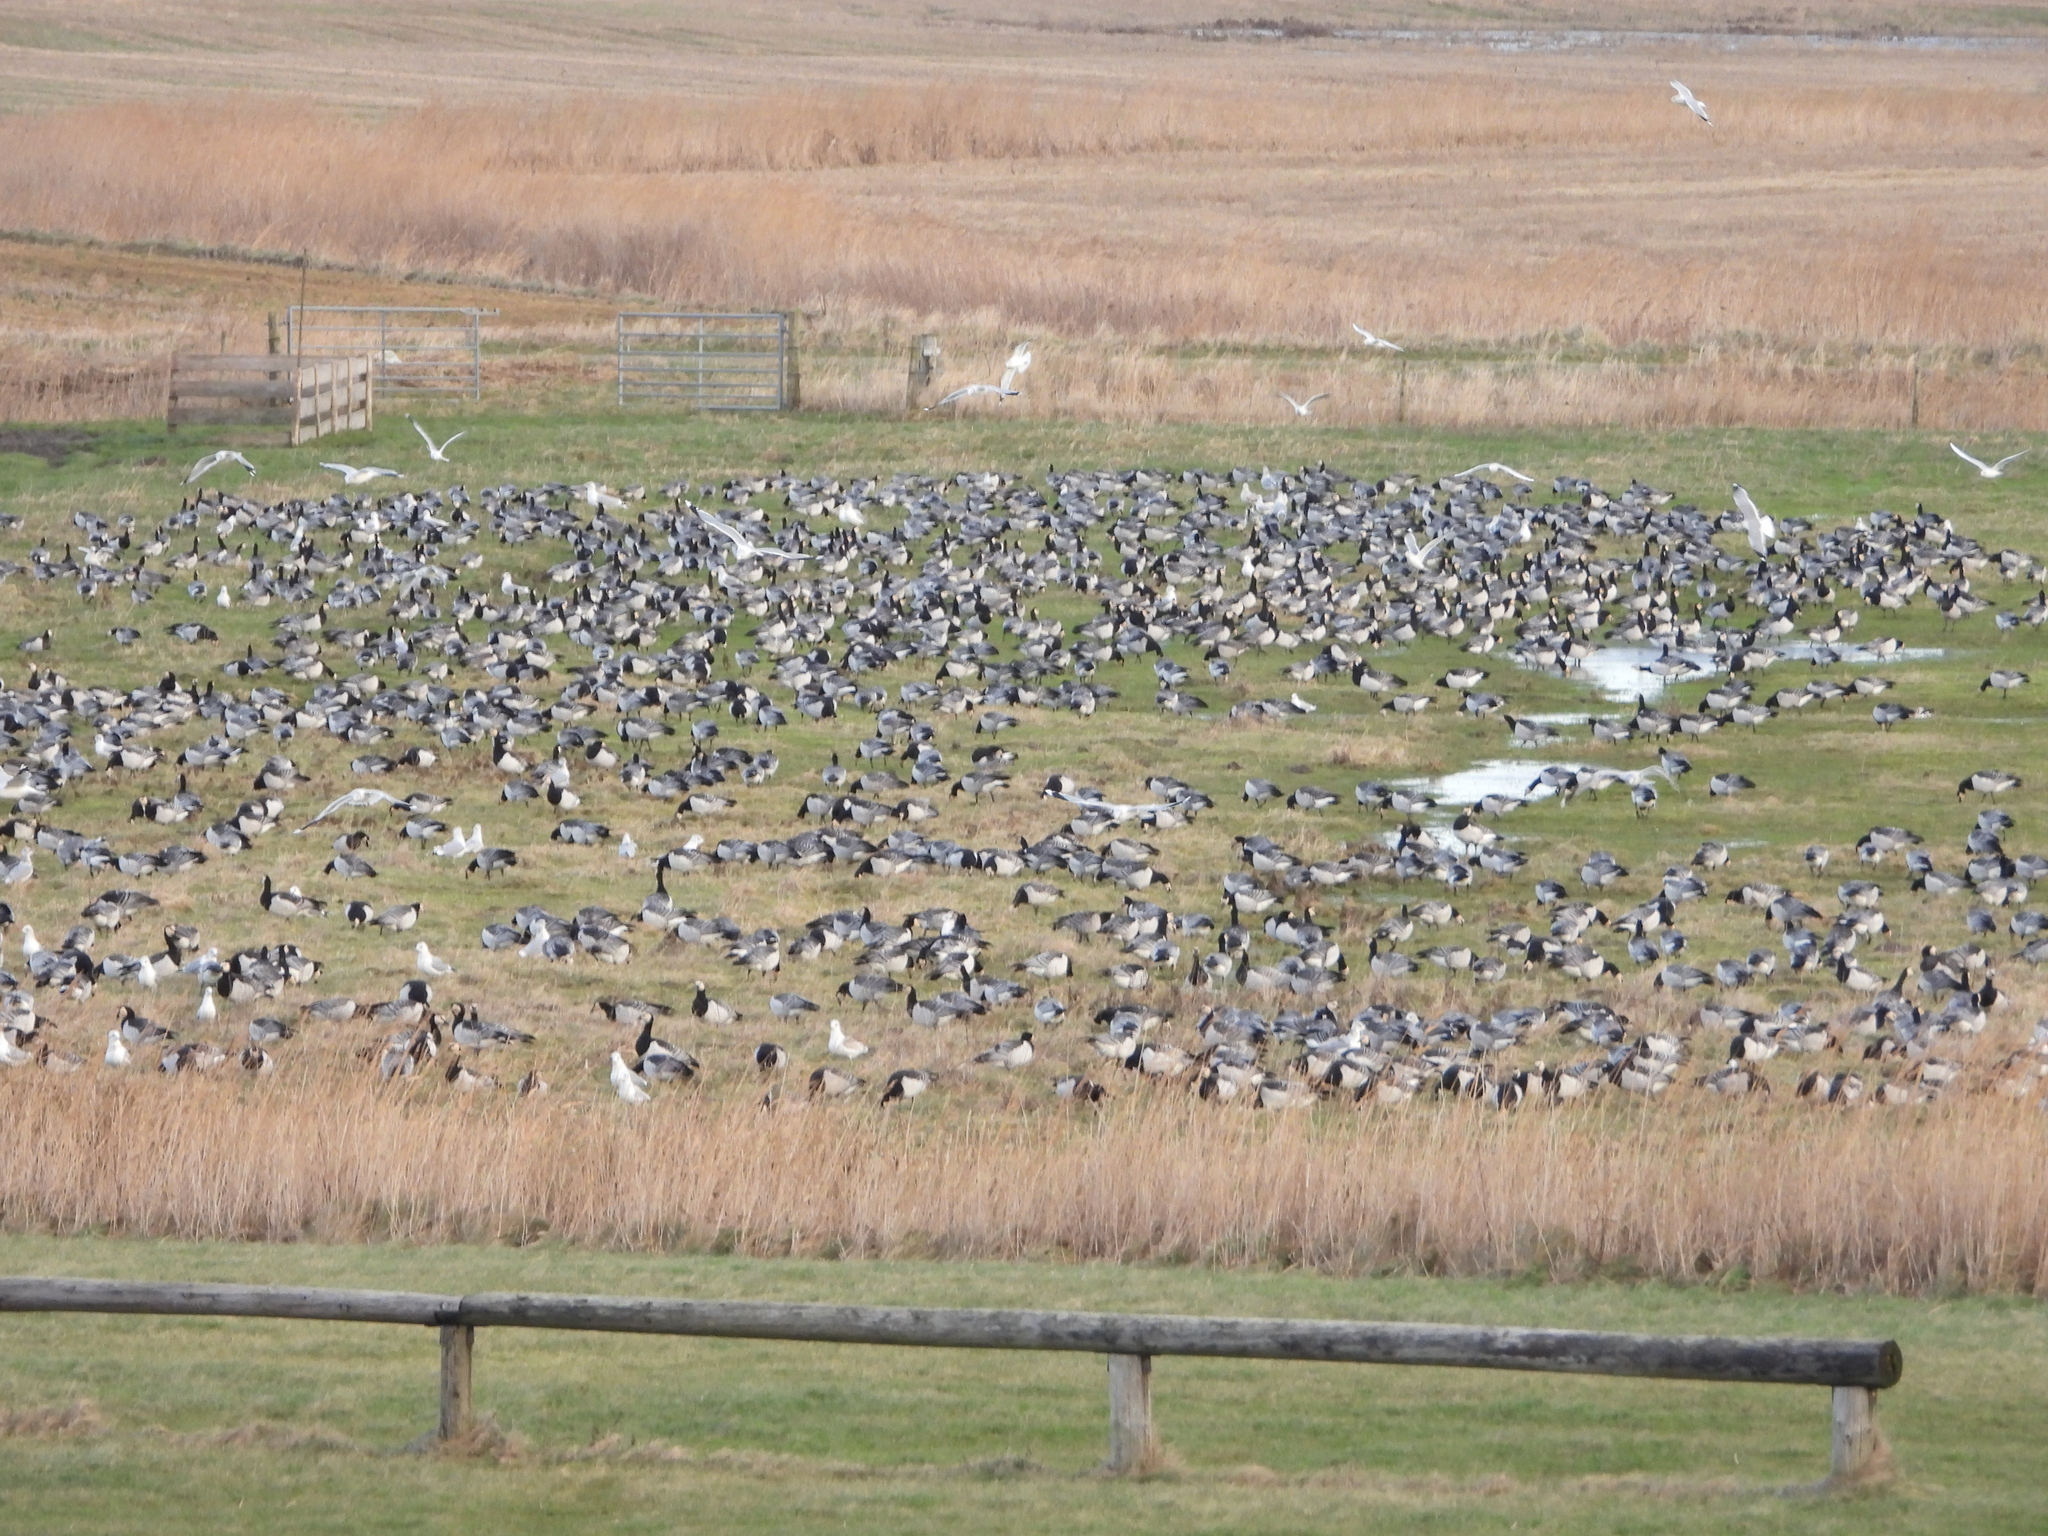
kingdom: Animalia
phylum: Chordata
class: Aves
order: Anseriformes
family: Anatidae
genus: Branta
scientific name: Branta leucopsis
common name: Barnacle goose
